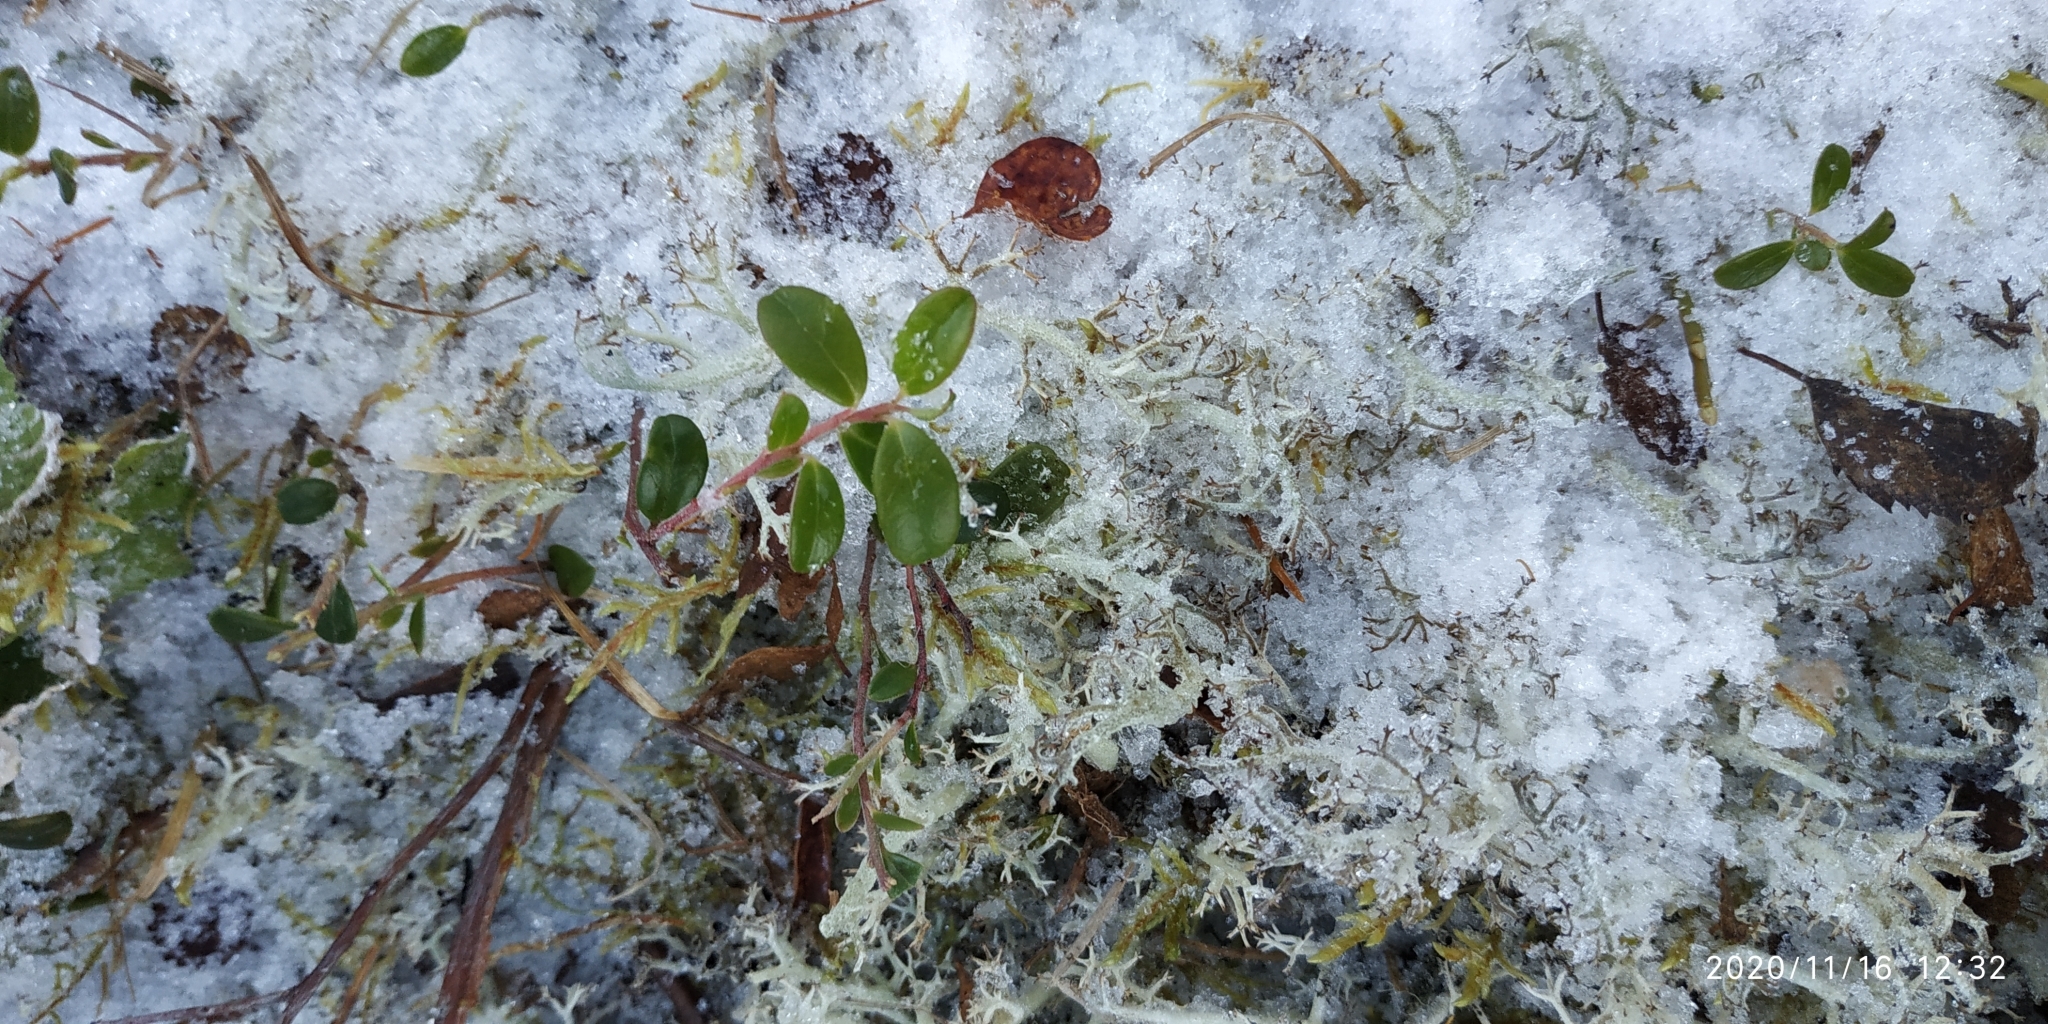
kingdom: Plantae
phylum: Tracheophyta
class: Magnoliopsida
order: Ericales
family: Ericaceae
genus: Vaccinium
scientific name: Vaccinium vitis-idaea
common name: Cowberry
